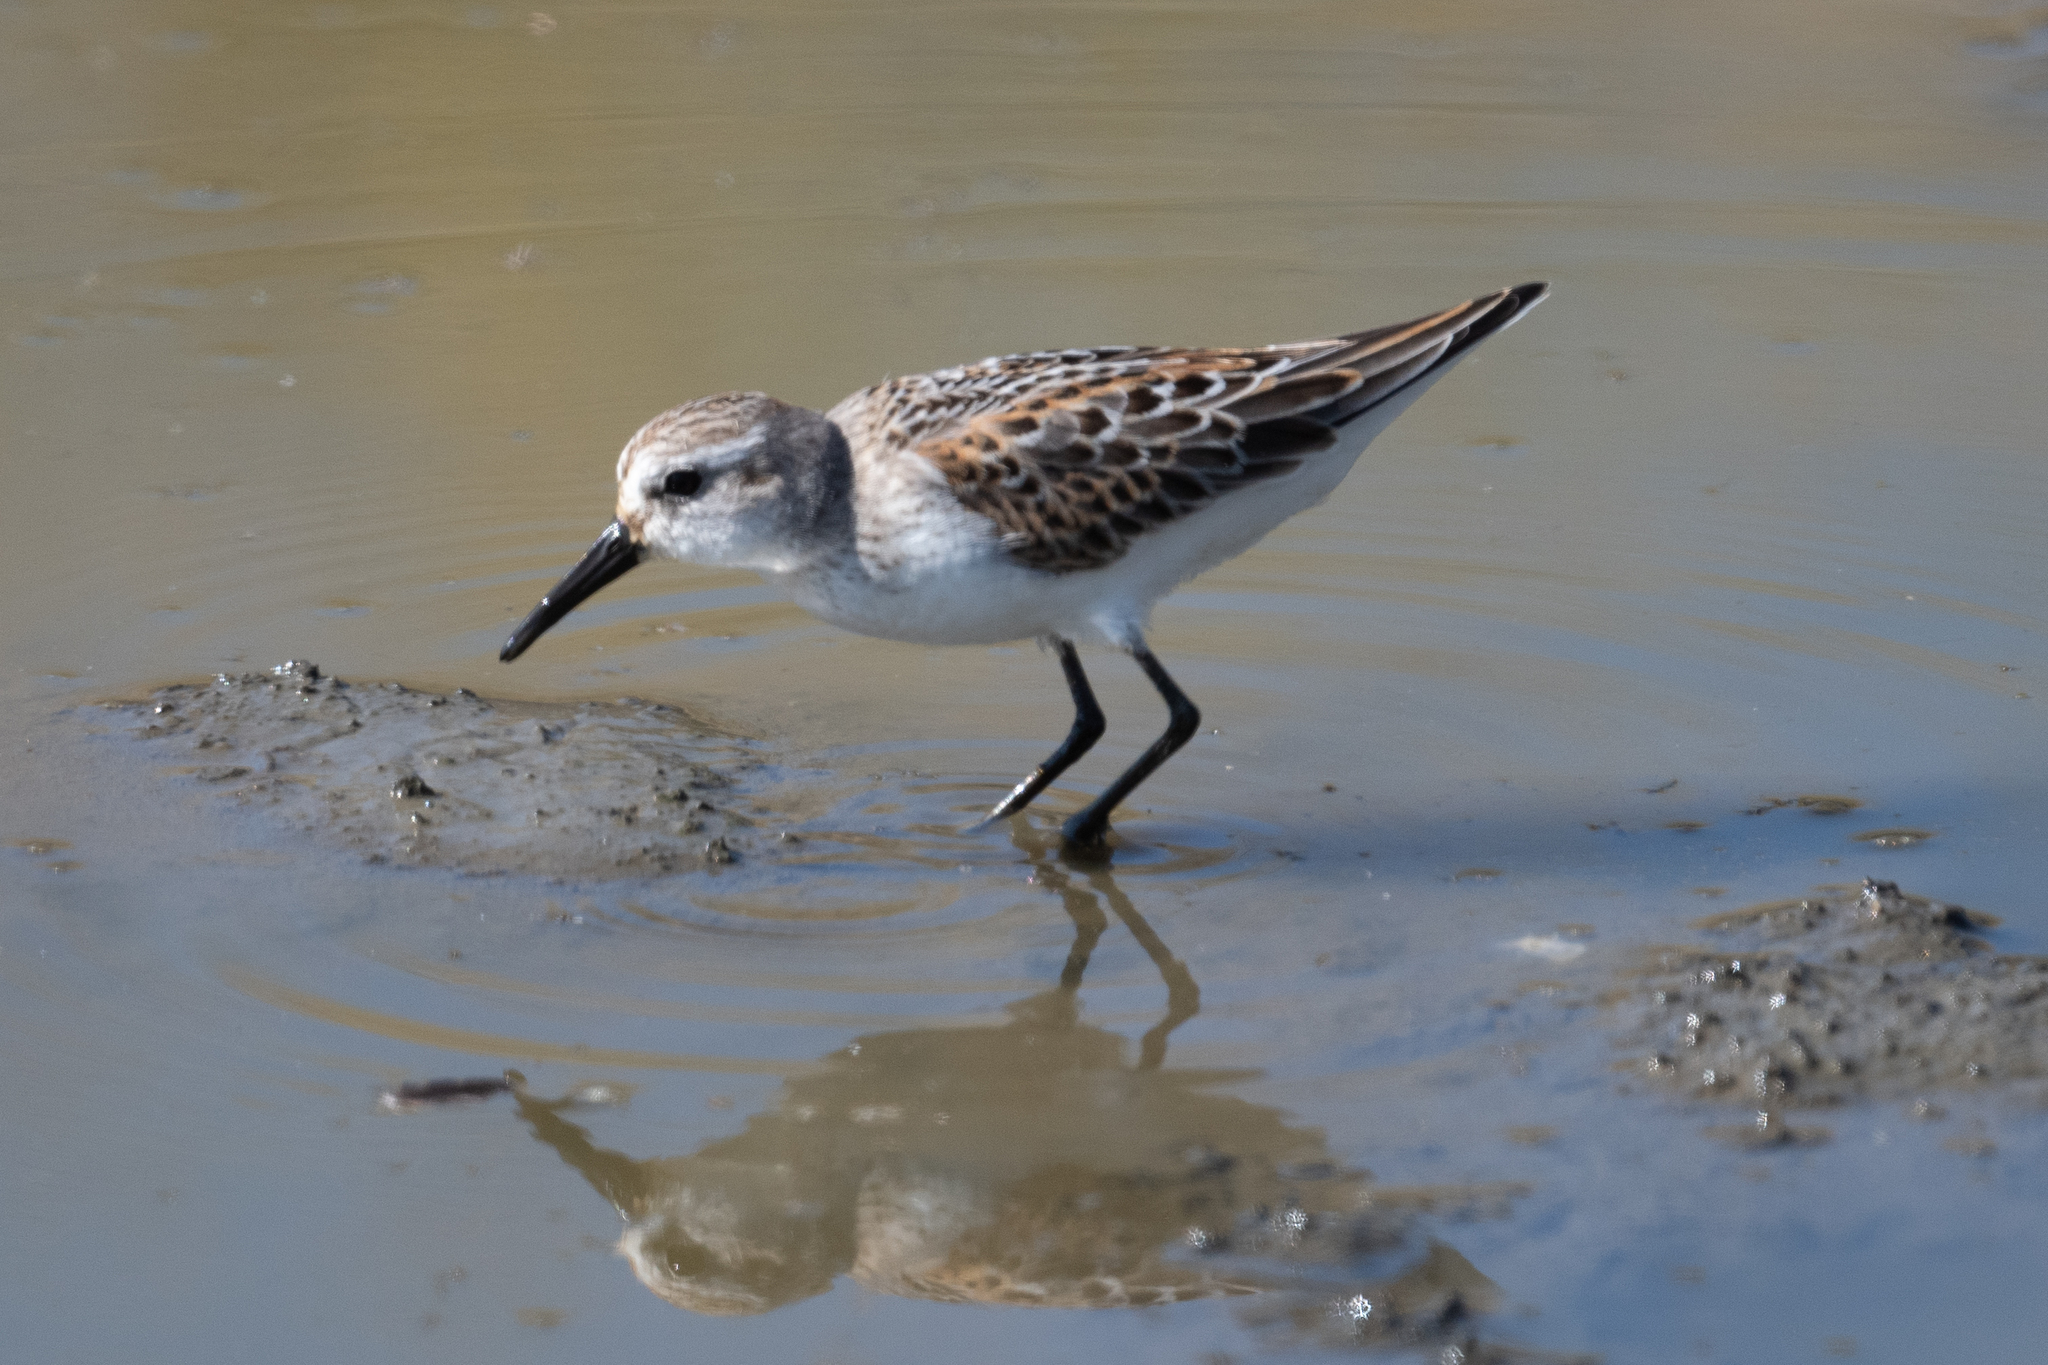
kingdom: Animalia
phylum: Chordata
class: Aves
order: Charadriiformes
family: Scolopacidae
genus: Calidris
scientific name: Calidris mauri
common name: Western sandpiper
